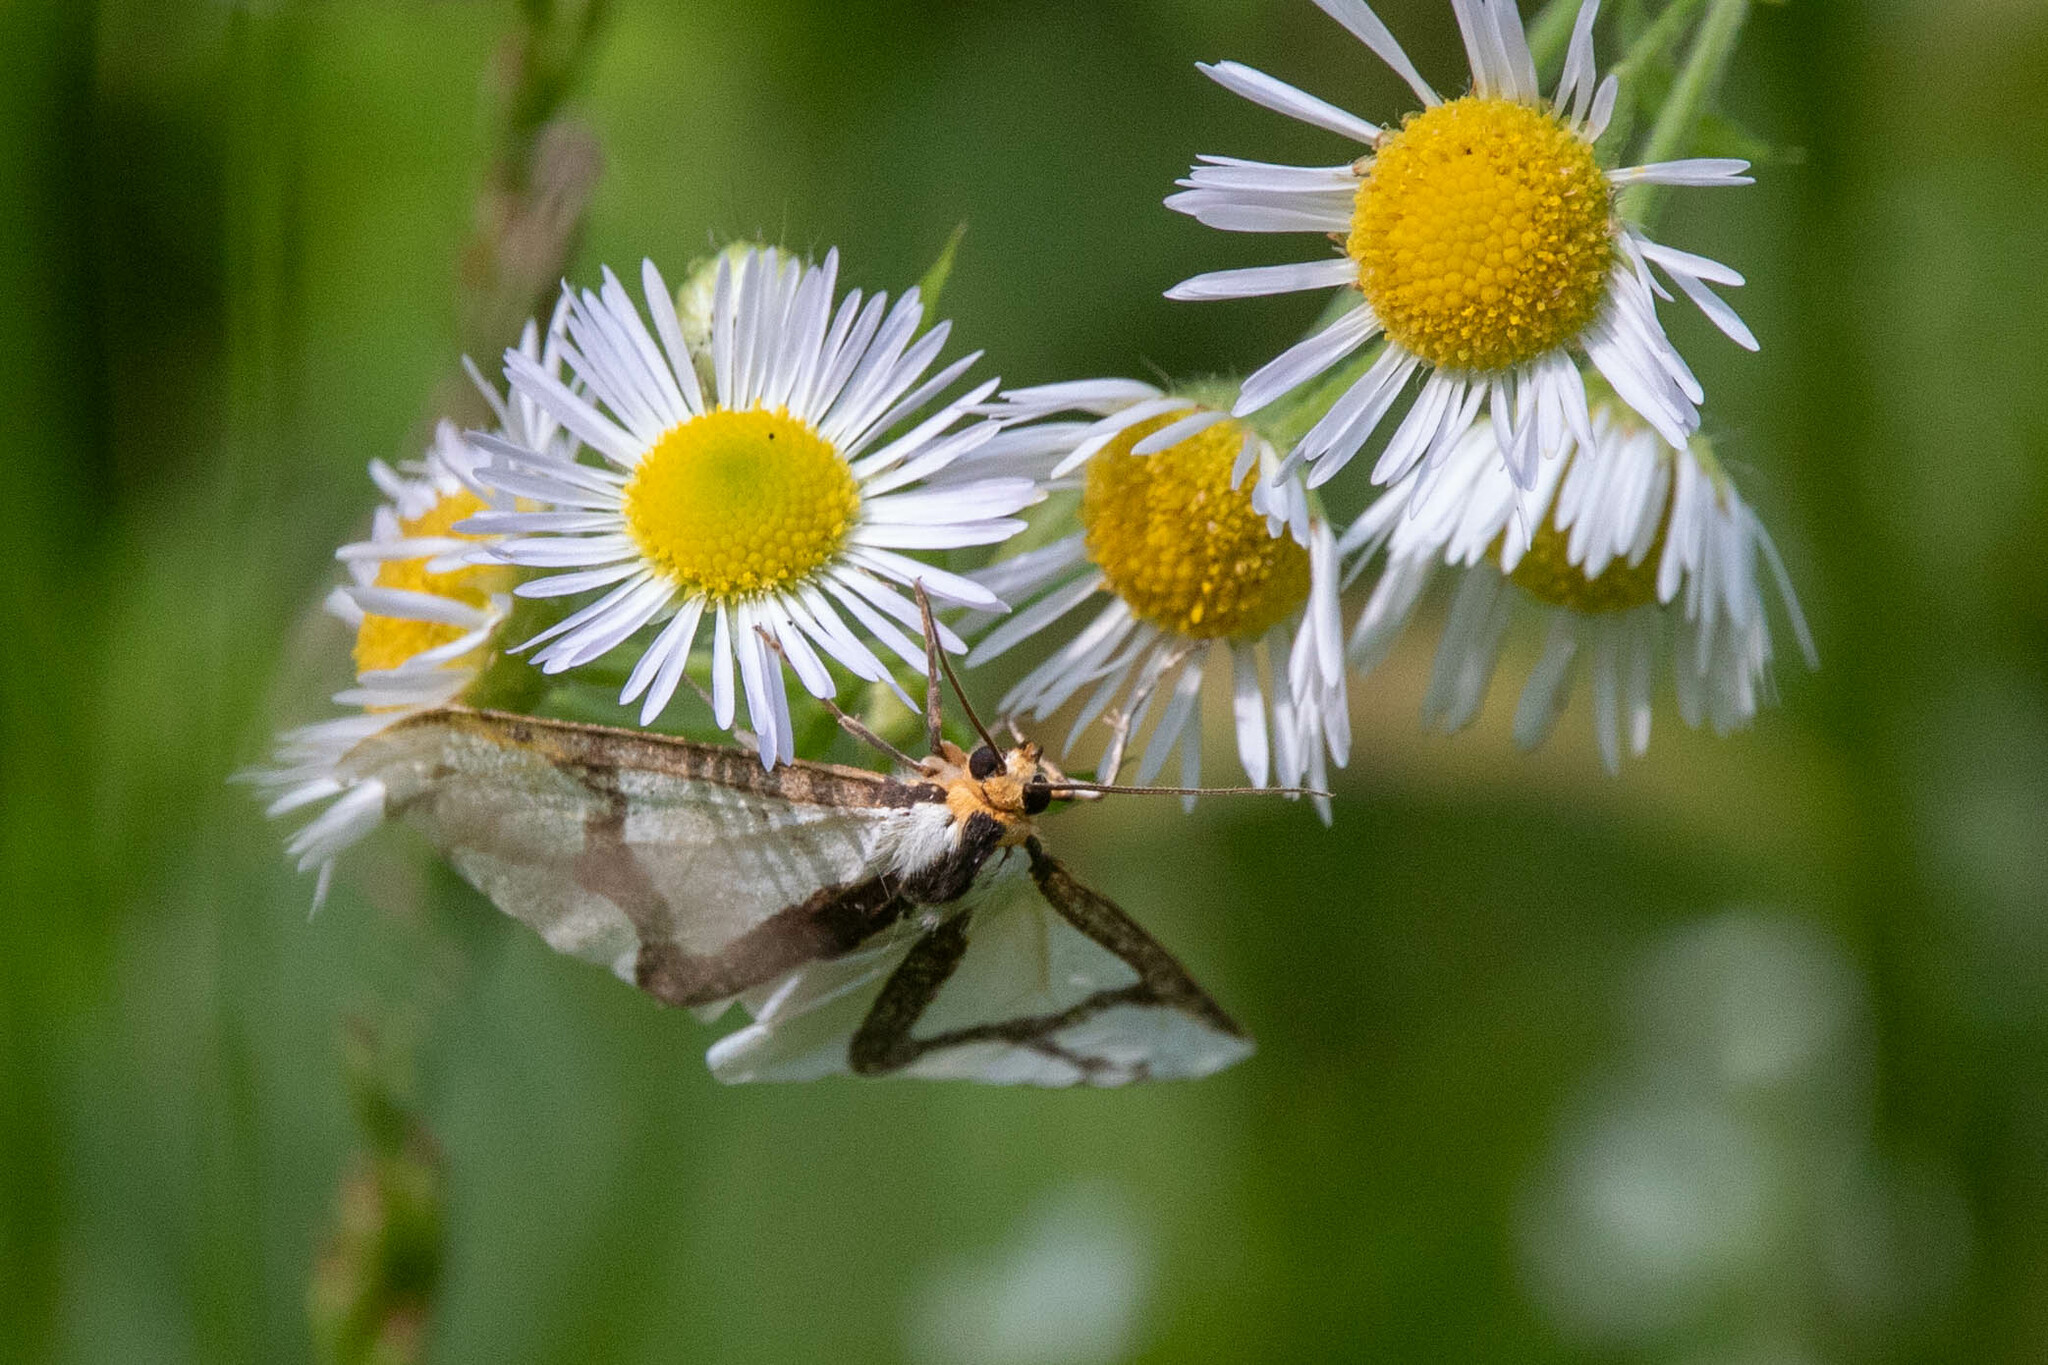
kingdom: Animalia
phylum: Arthropoda
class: Insecta
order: Lepidoptera
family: Erebidae
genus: Haploa
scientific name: Haploa contigua
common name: Neighbor moth
